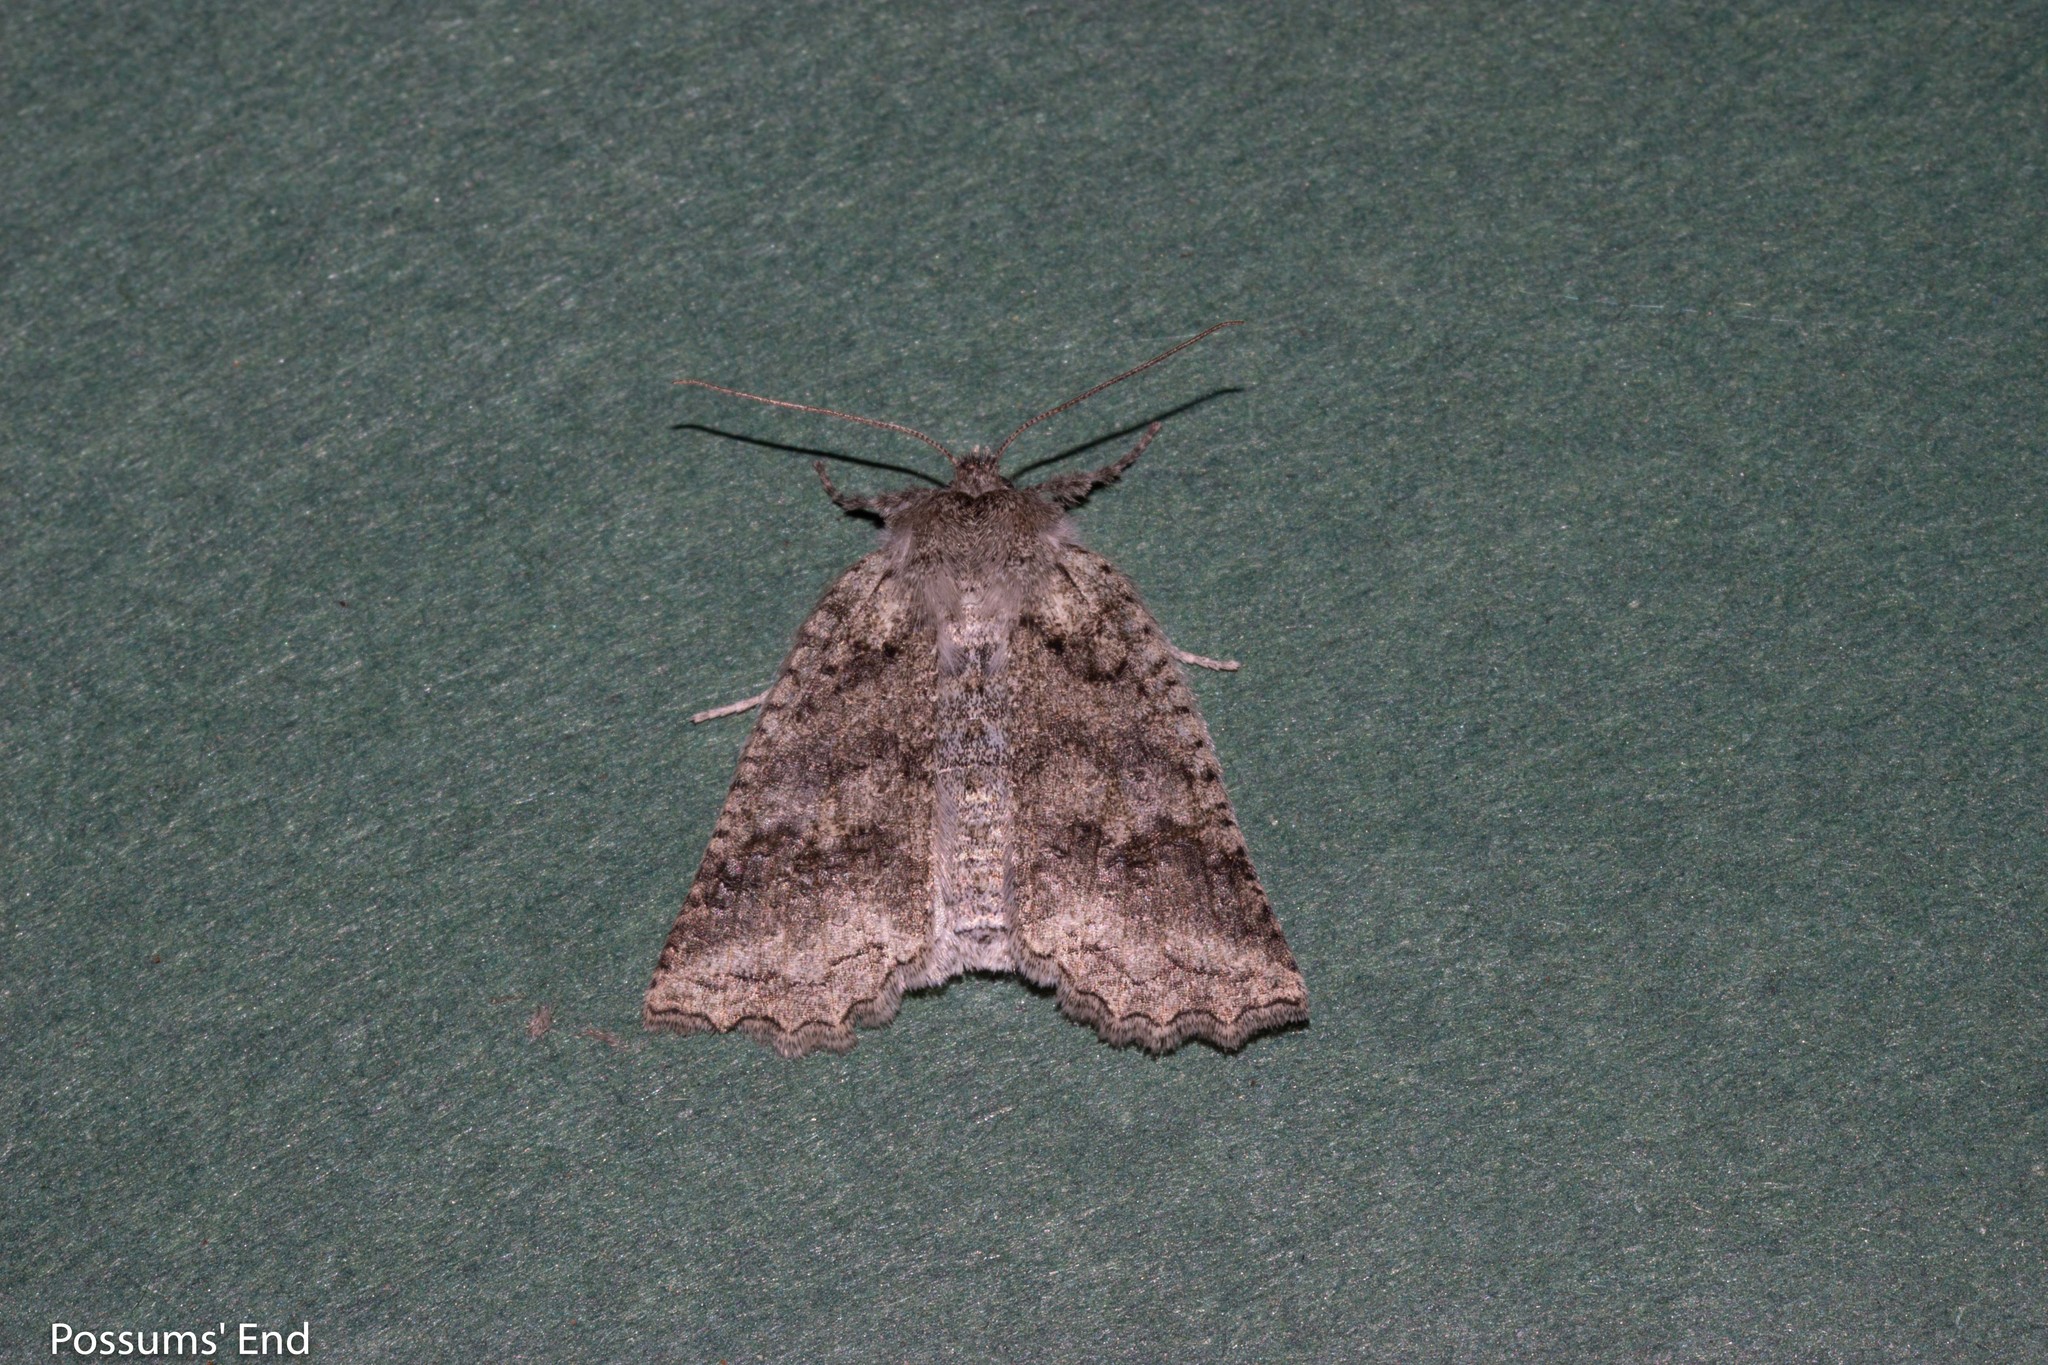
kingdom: Animalia
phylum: Arthropoda
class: Insecta
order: Lepidoptera
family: Geometridae
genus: Declana
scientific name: Declana floccosa
